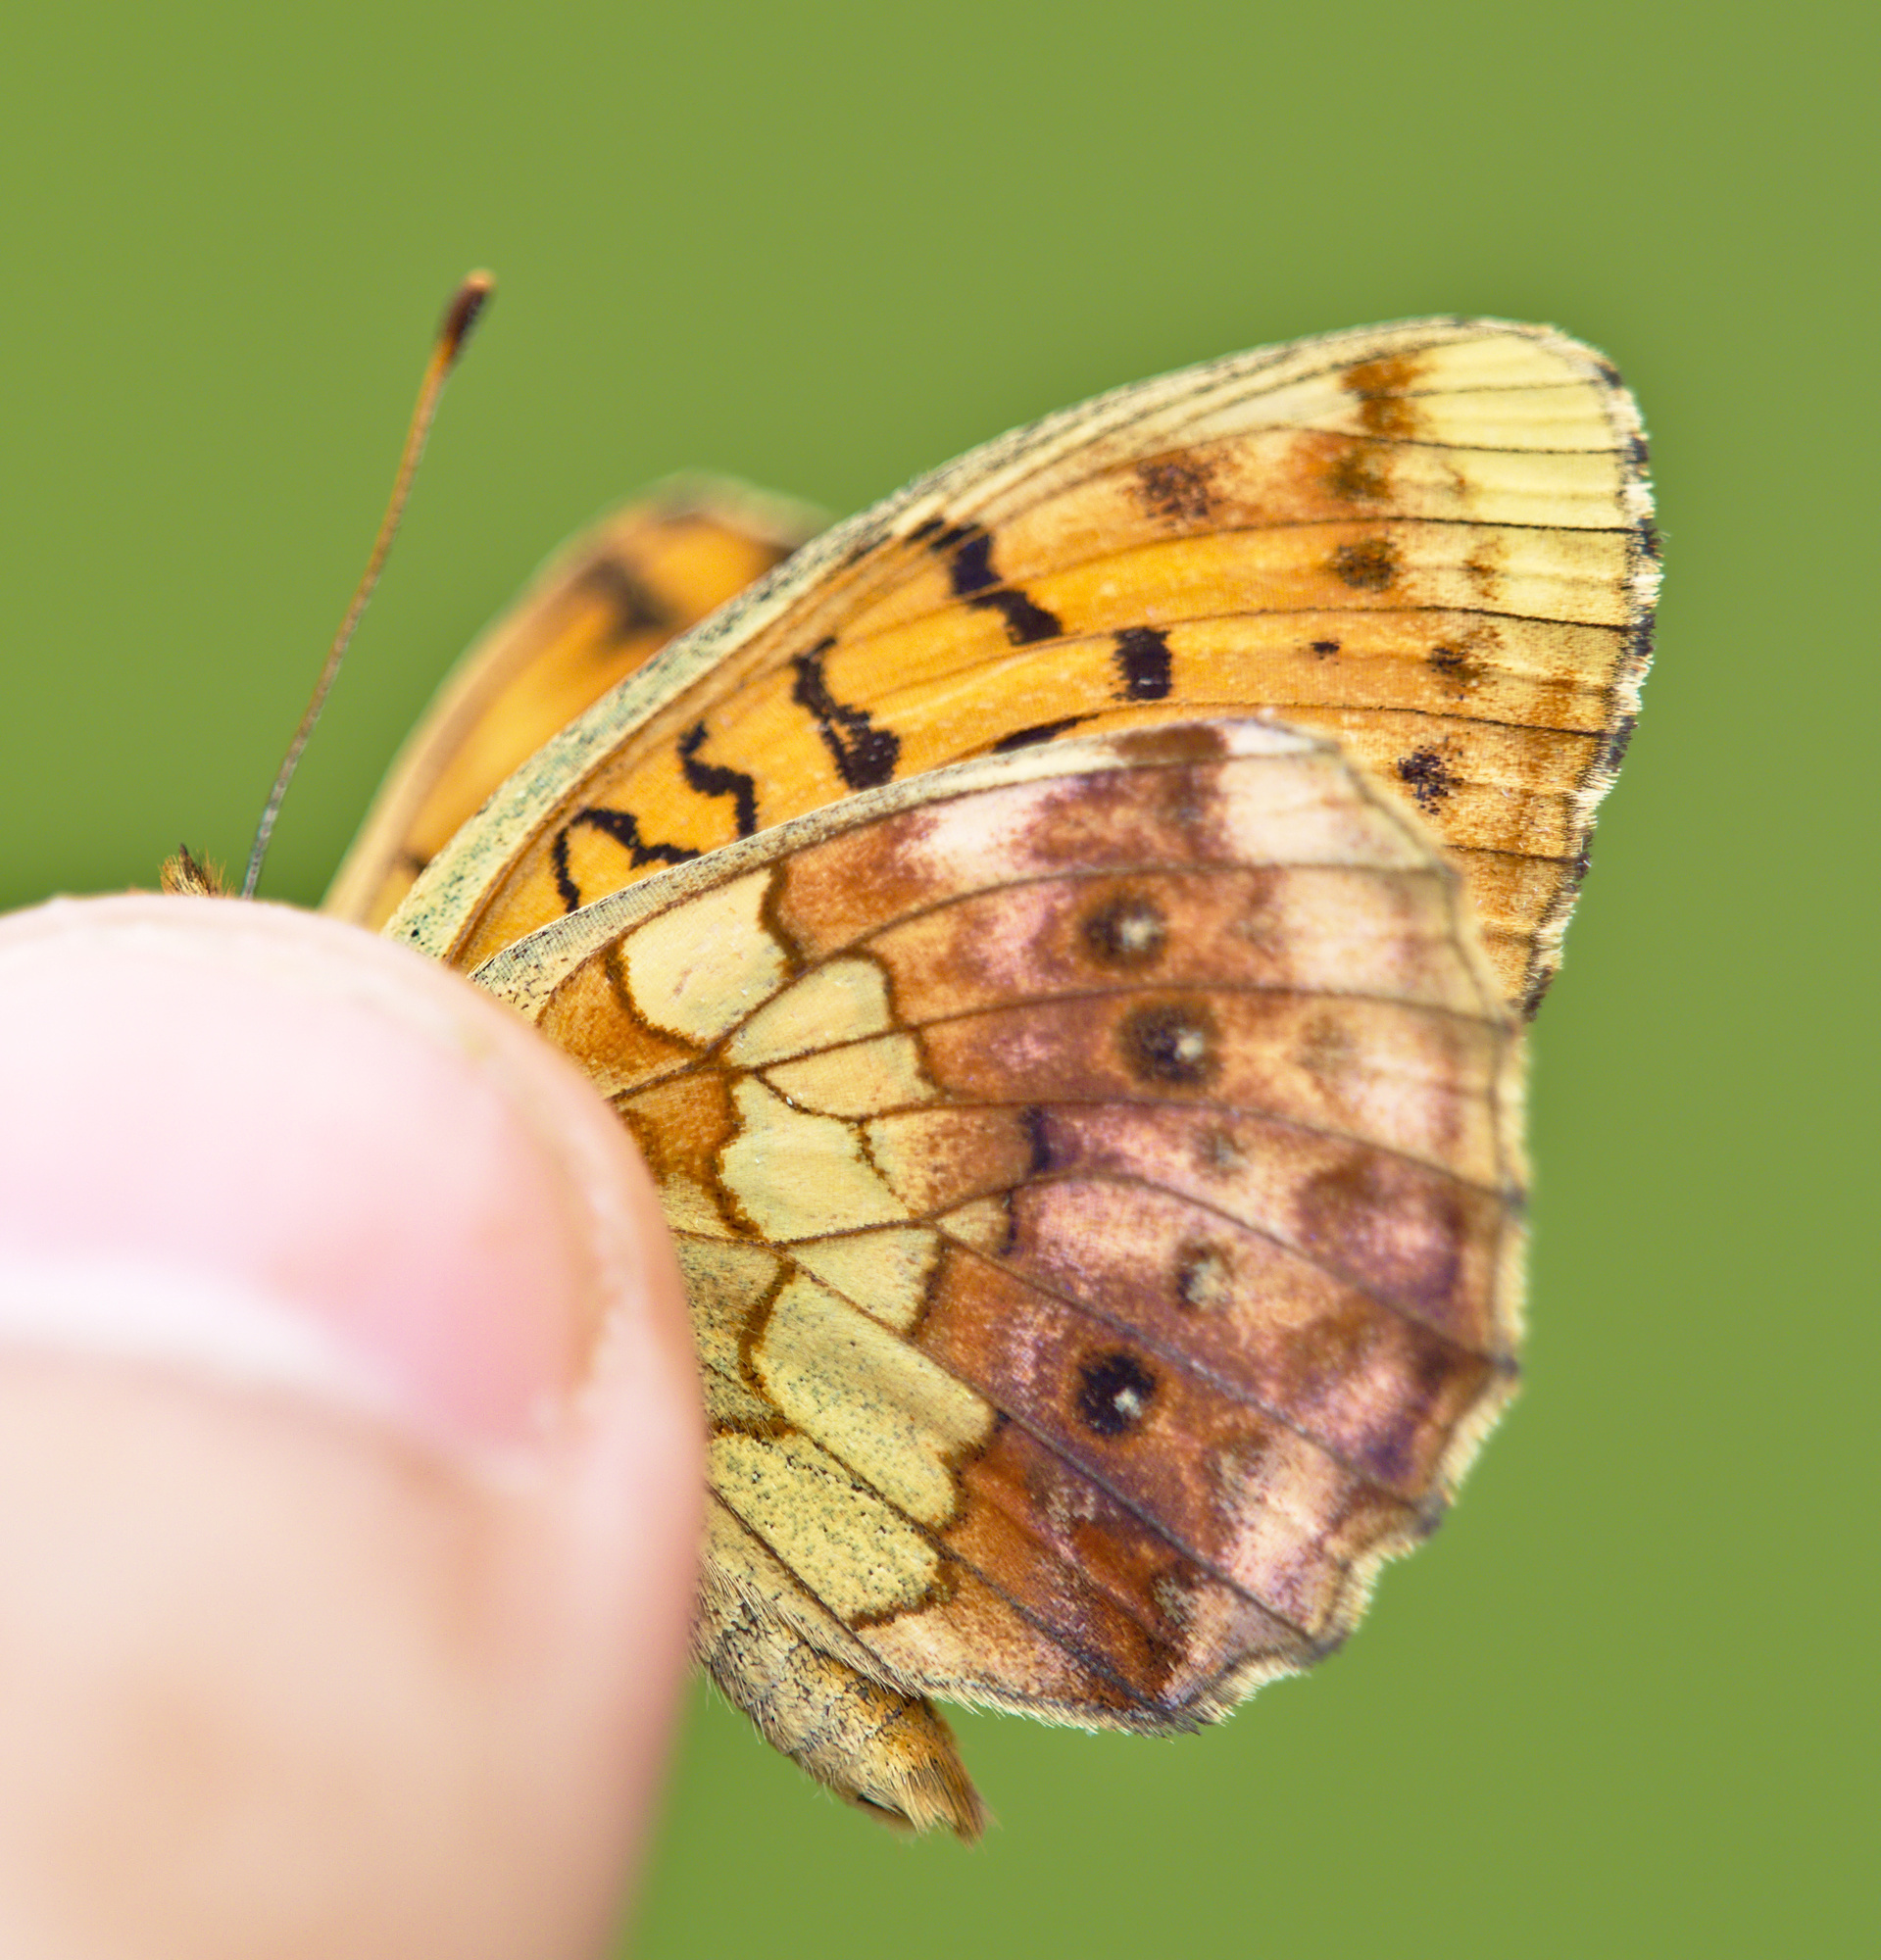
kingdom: Animalia
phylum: Arthropoda
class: Insecta
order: Lepidoptera
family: Nymphalidae
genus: Brenthis
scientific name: Brenthis daphne
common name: Marbled fritillary
